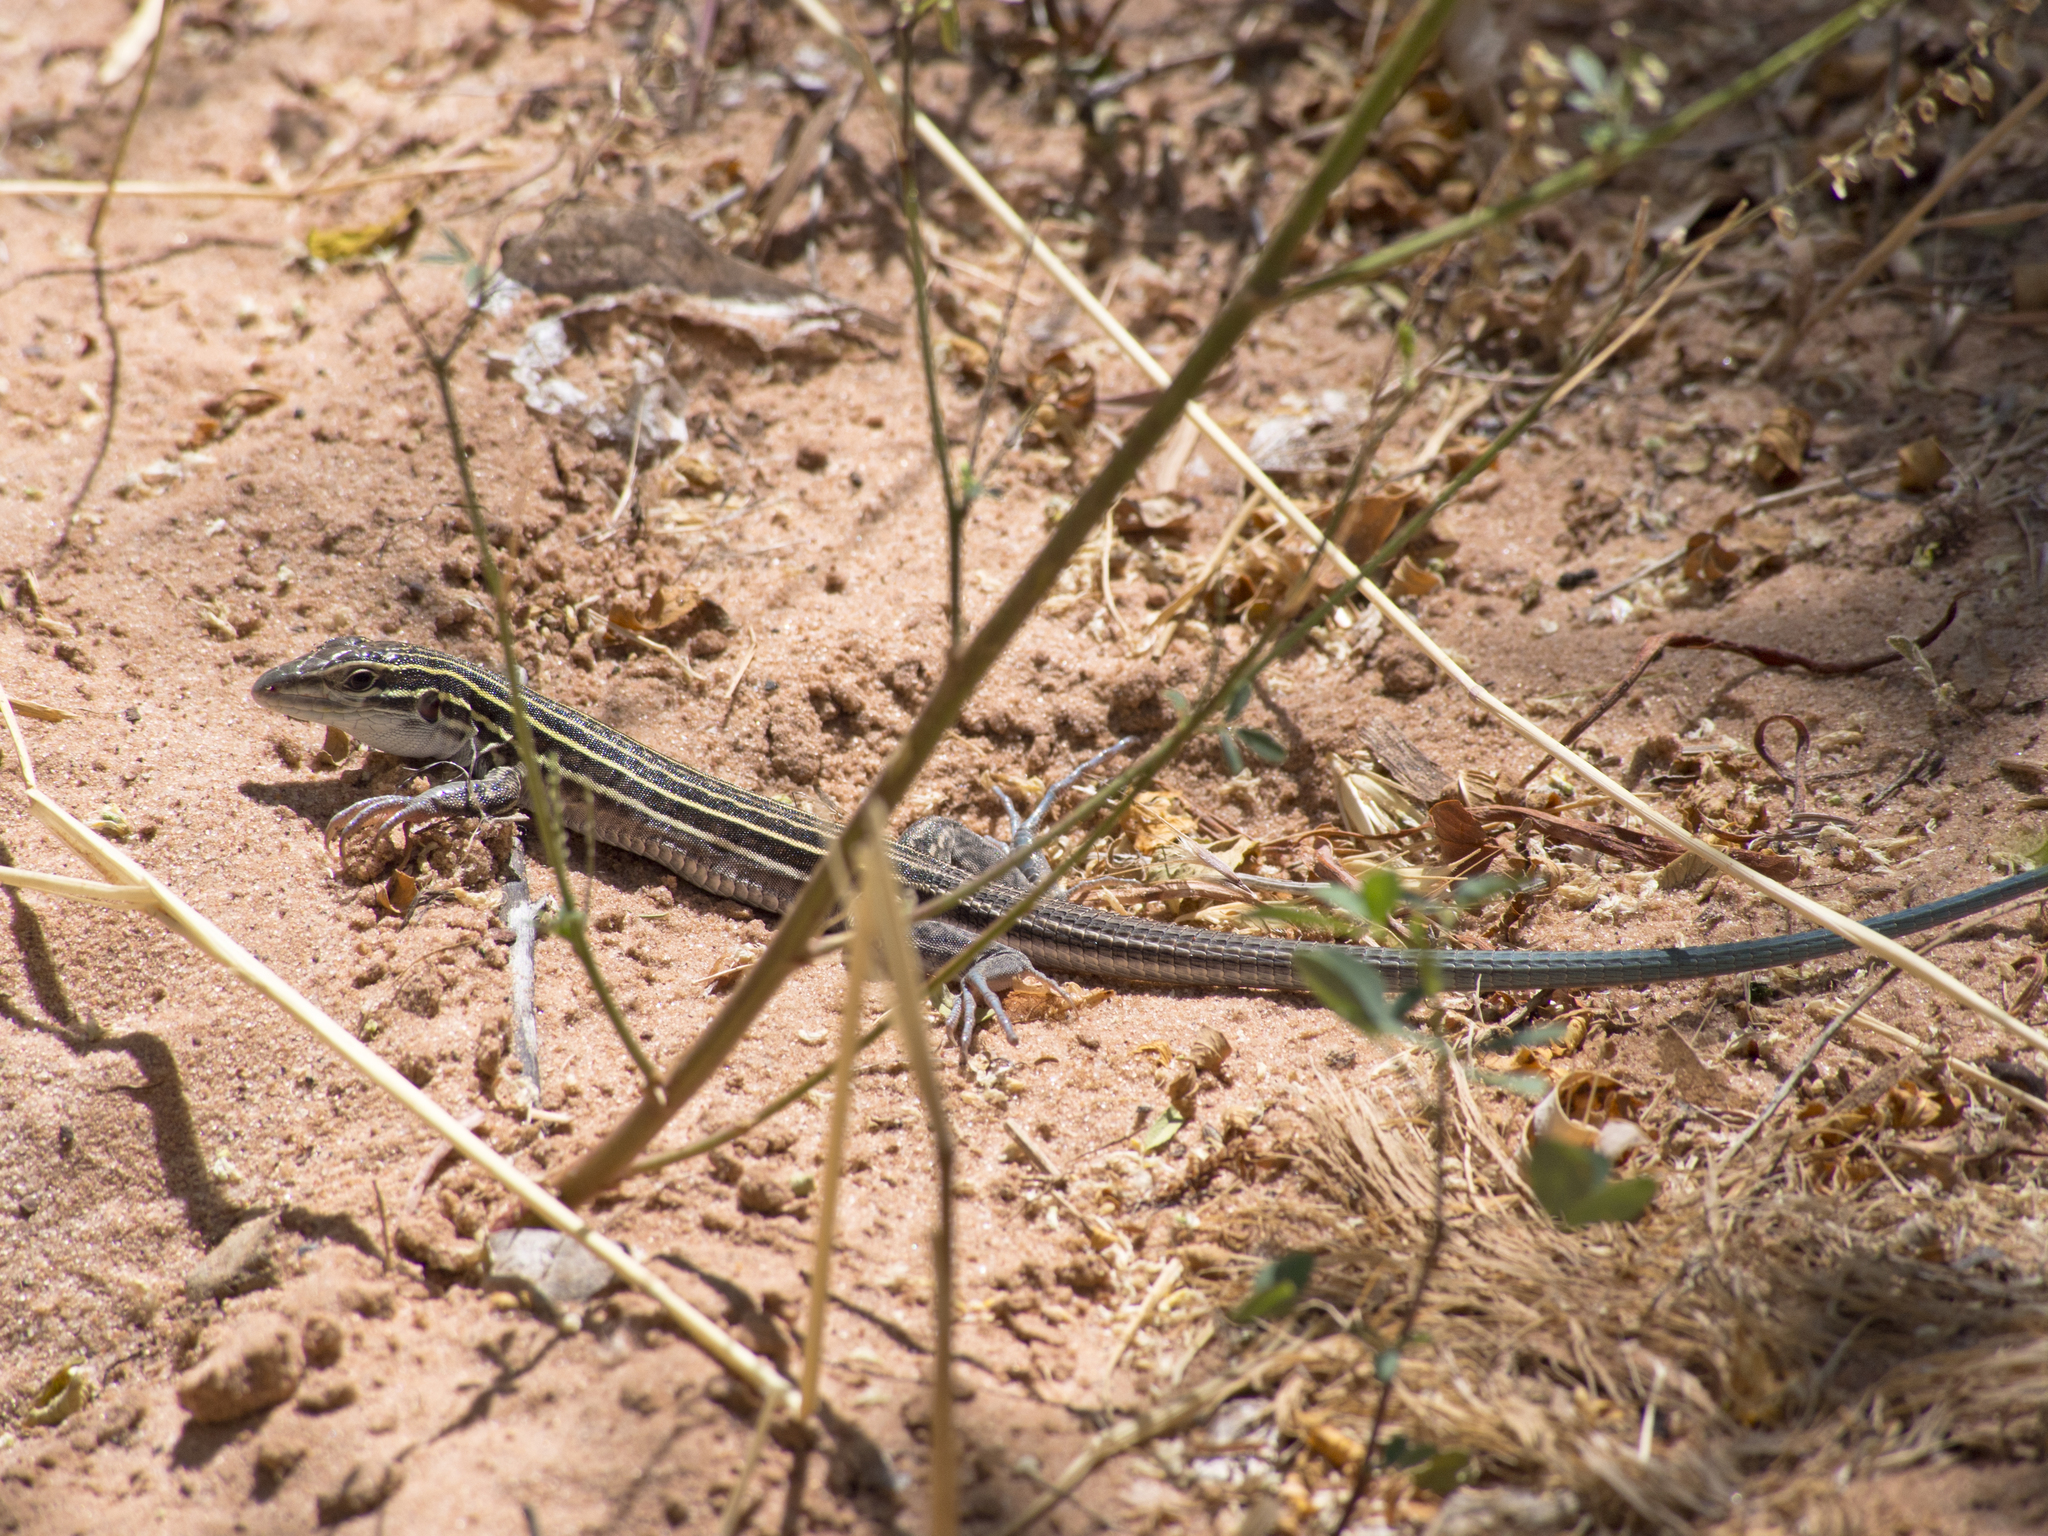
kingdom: Animalia
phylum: Chordata
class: Squamata
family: Teiidae
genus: Aspidoscelis
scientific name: Aspidoscelis velox
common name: Plateau striped whiptail
